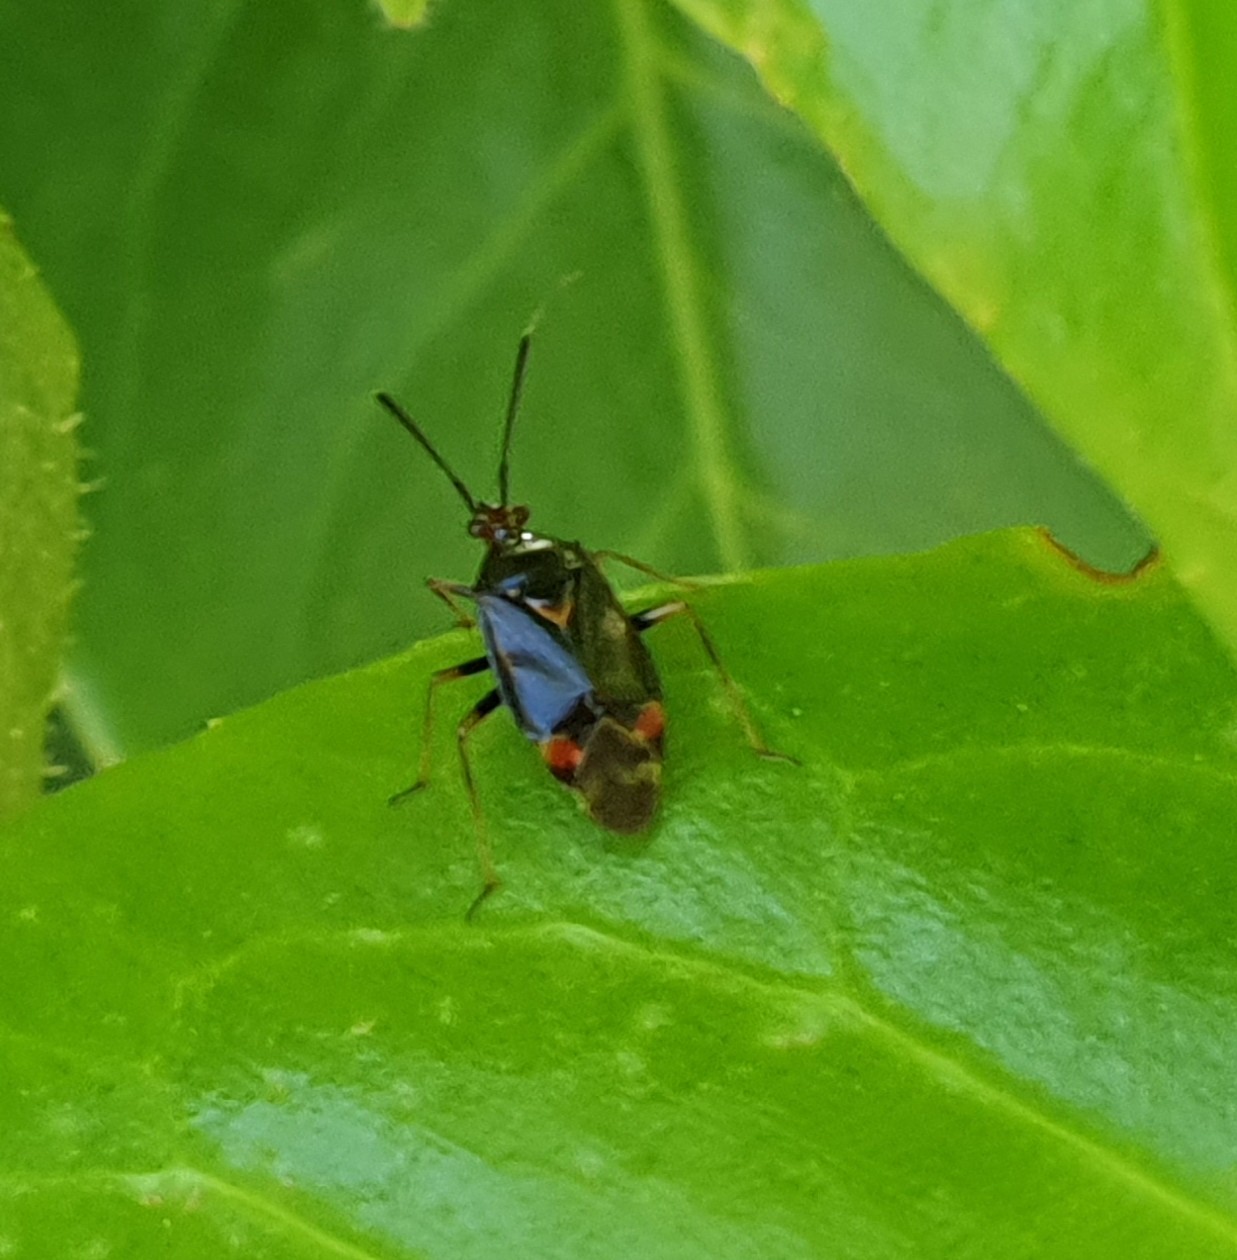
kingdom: Animalia
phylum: Arthropoda
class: Insecta
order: Hemiptera
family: Miridae
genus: Deraeocoris
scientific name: Deraeocoris ruber
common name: Plant bug
